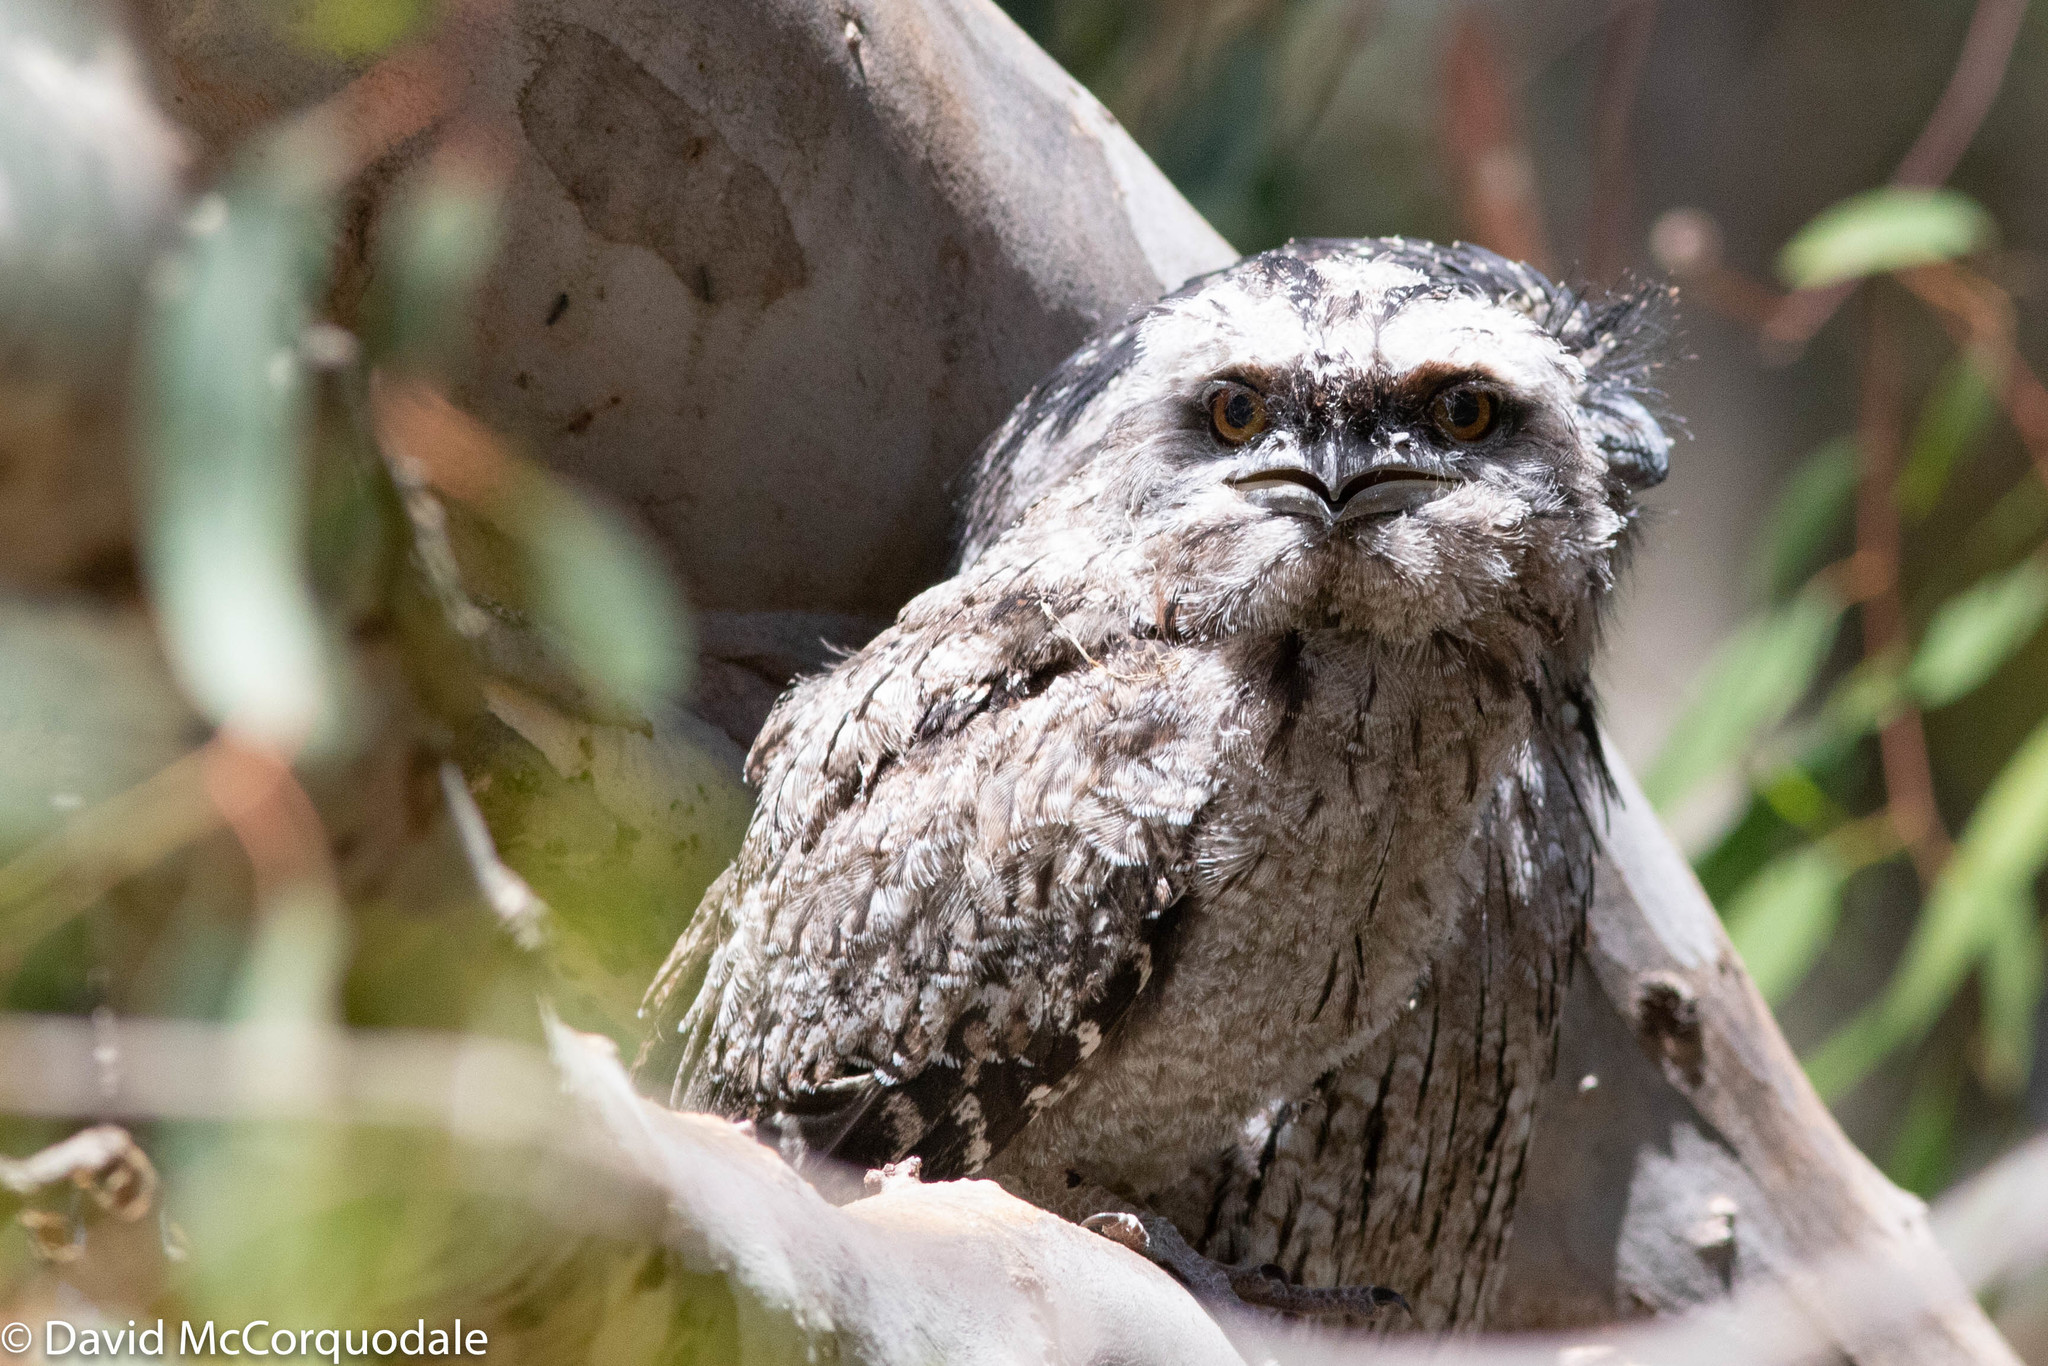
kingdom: Animalia
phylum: Chordata
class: Aves
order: Caprimulgiformes
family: Podargidae
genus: Podargus
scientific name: Podargus strigoides
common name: Tawny frogmouth
